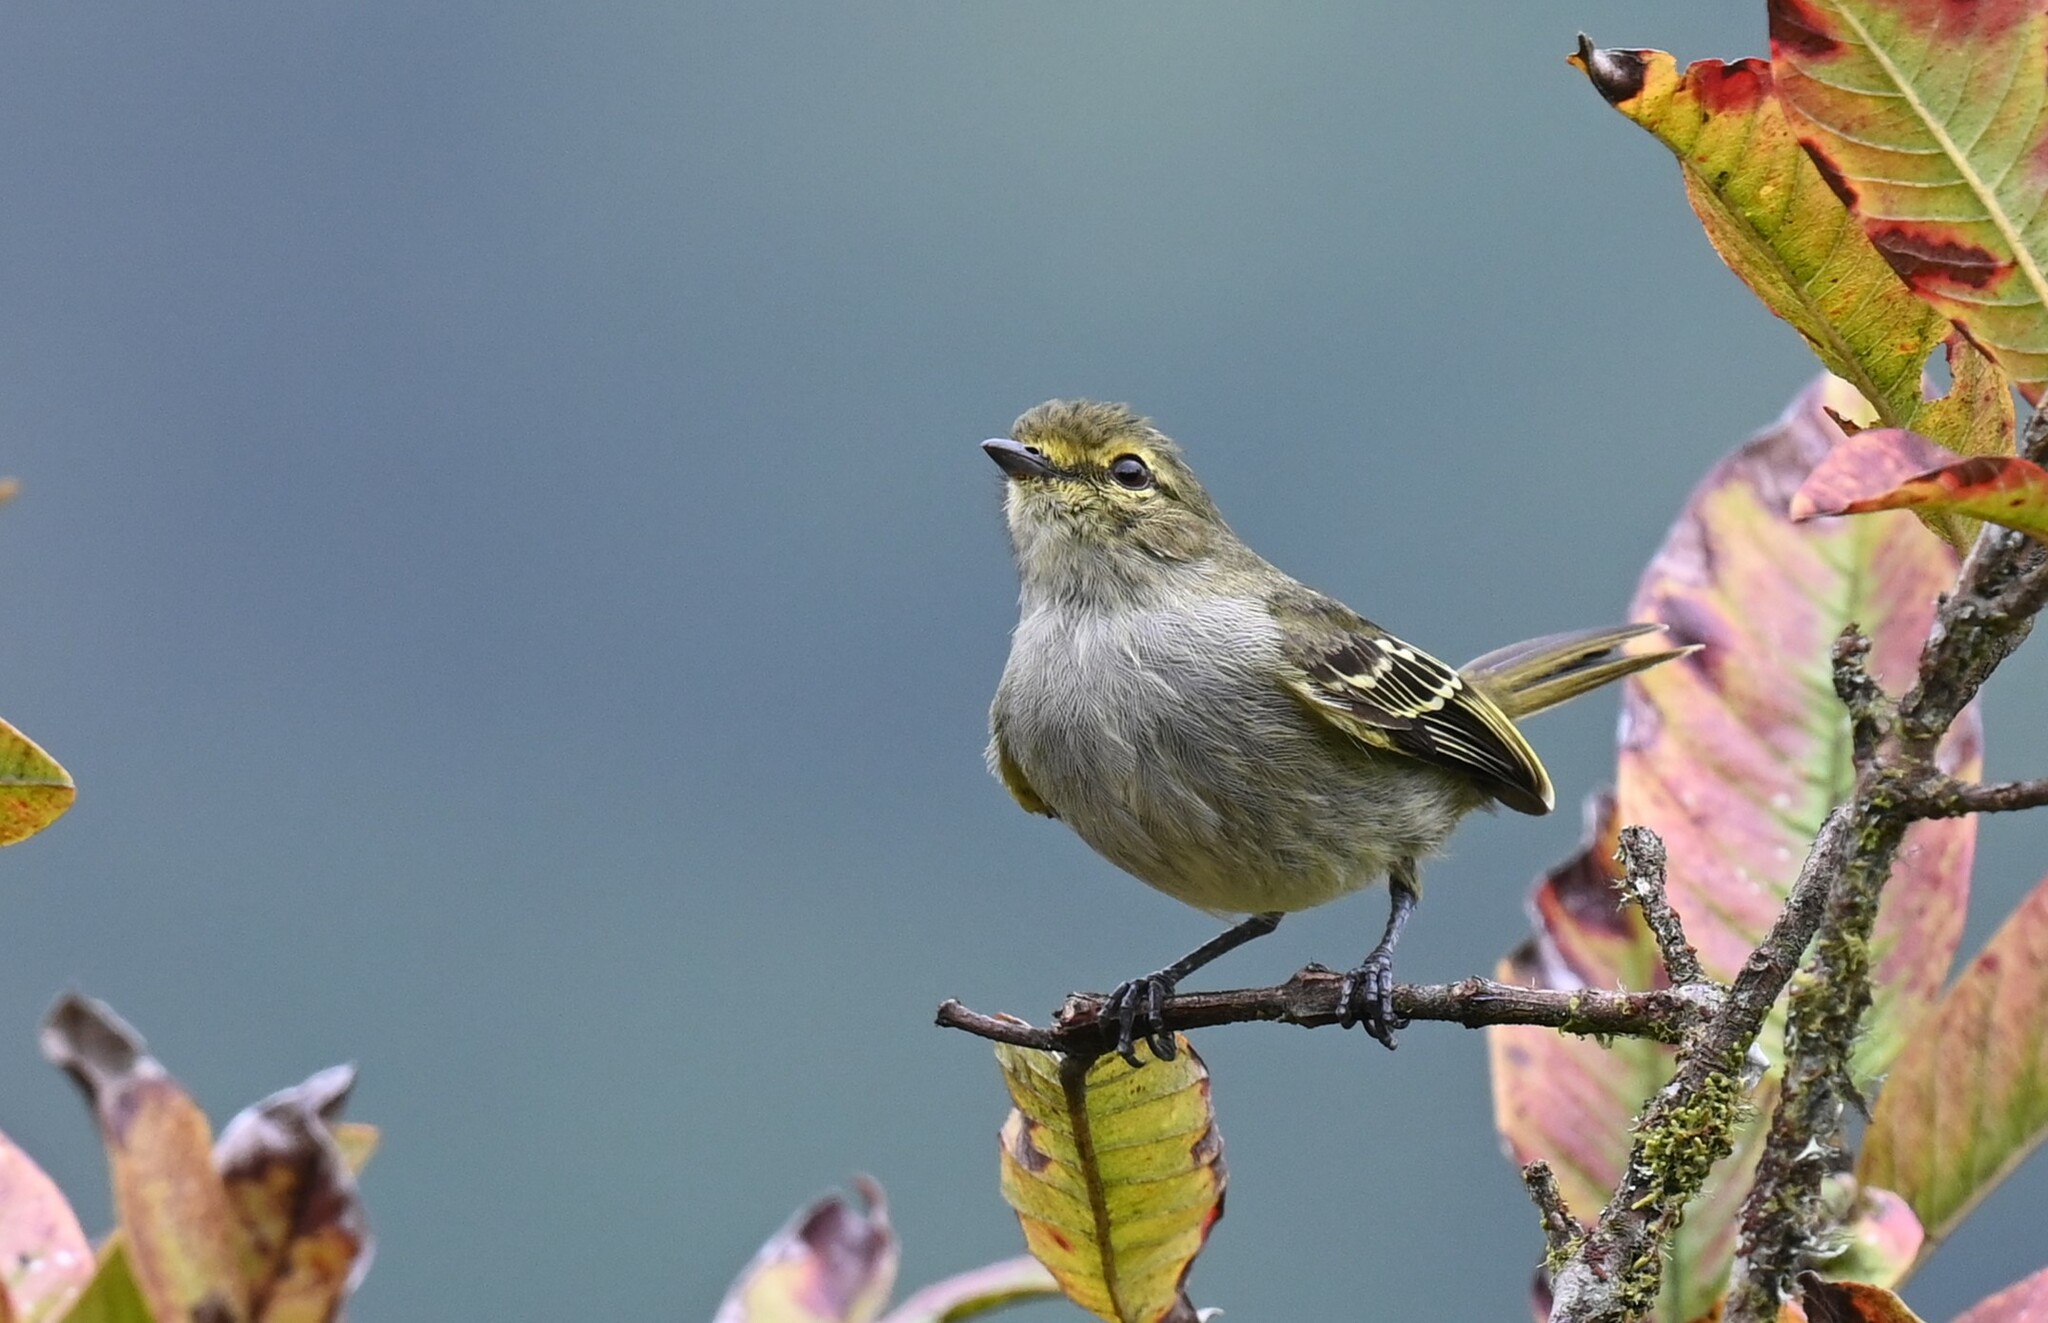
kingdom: Animalia
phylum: Chordata
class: Aves
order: Passeriformes
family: Tyrannidae
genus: Zimmerius
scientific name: Zimmerius chrysops
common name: Golden-faced tyrannulet
